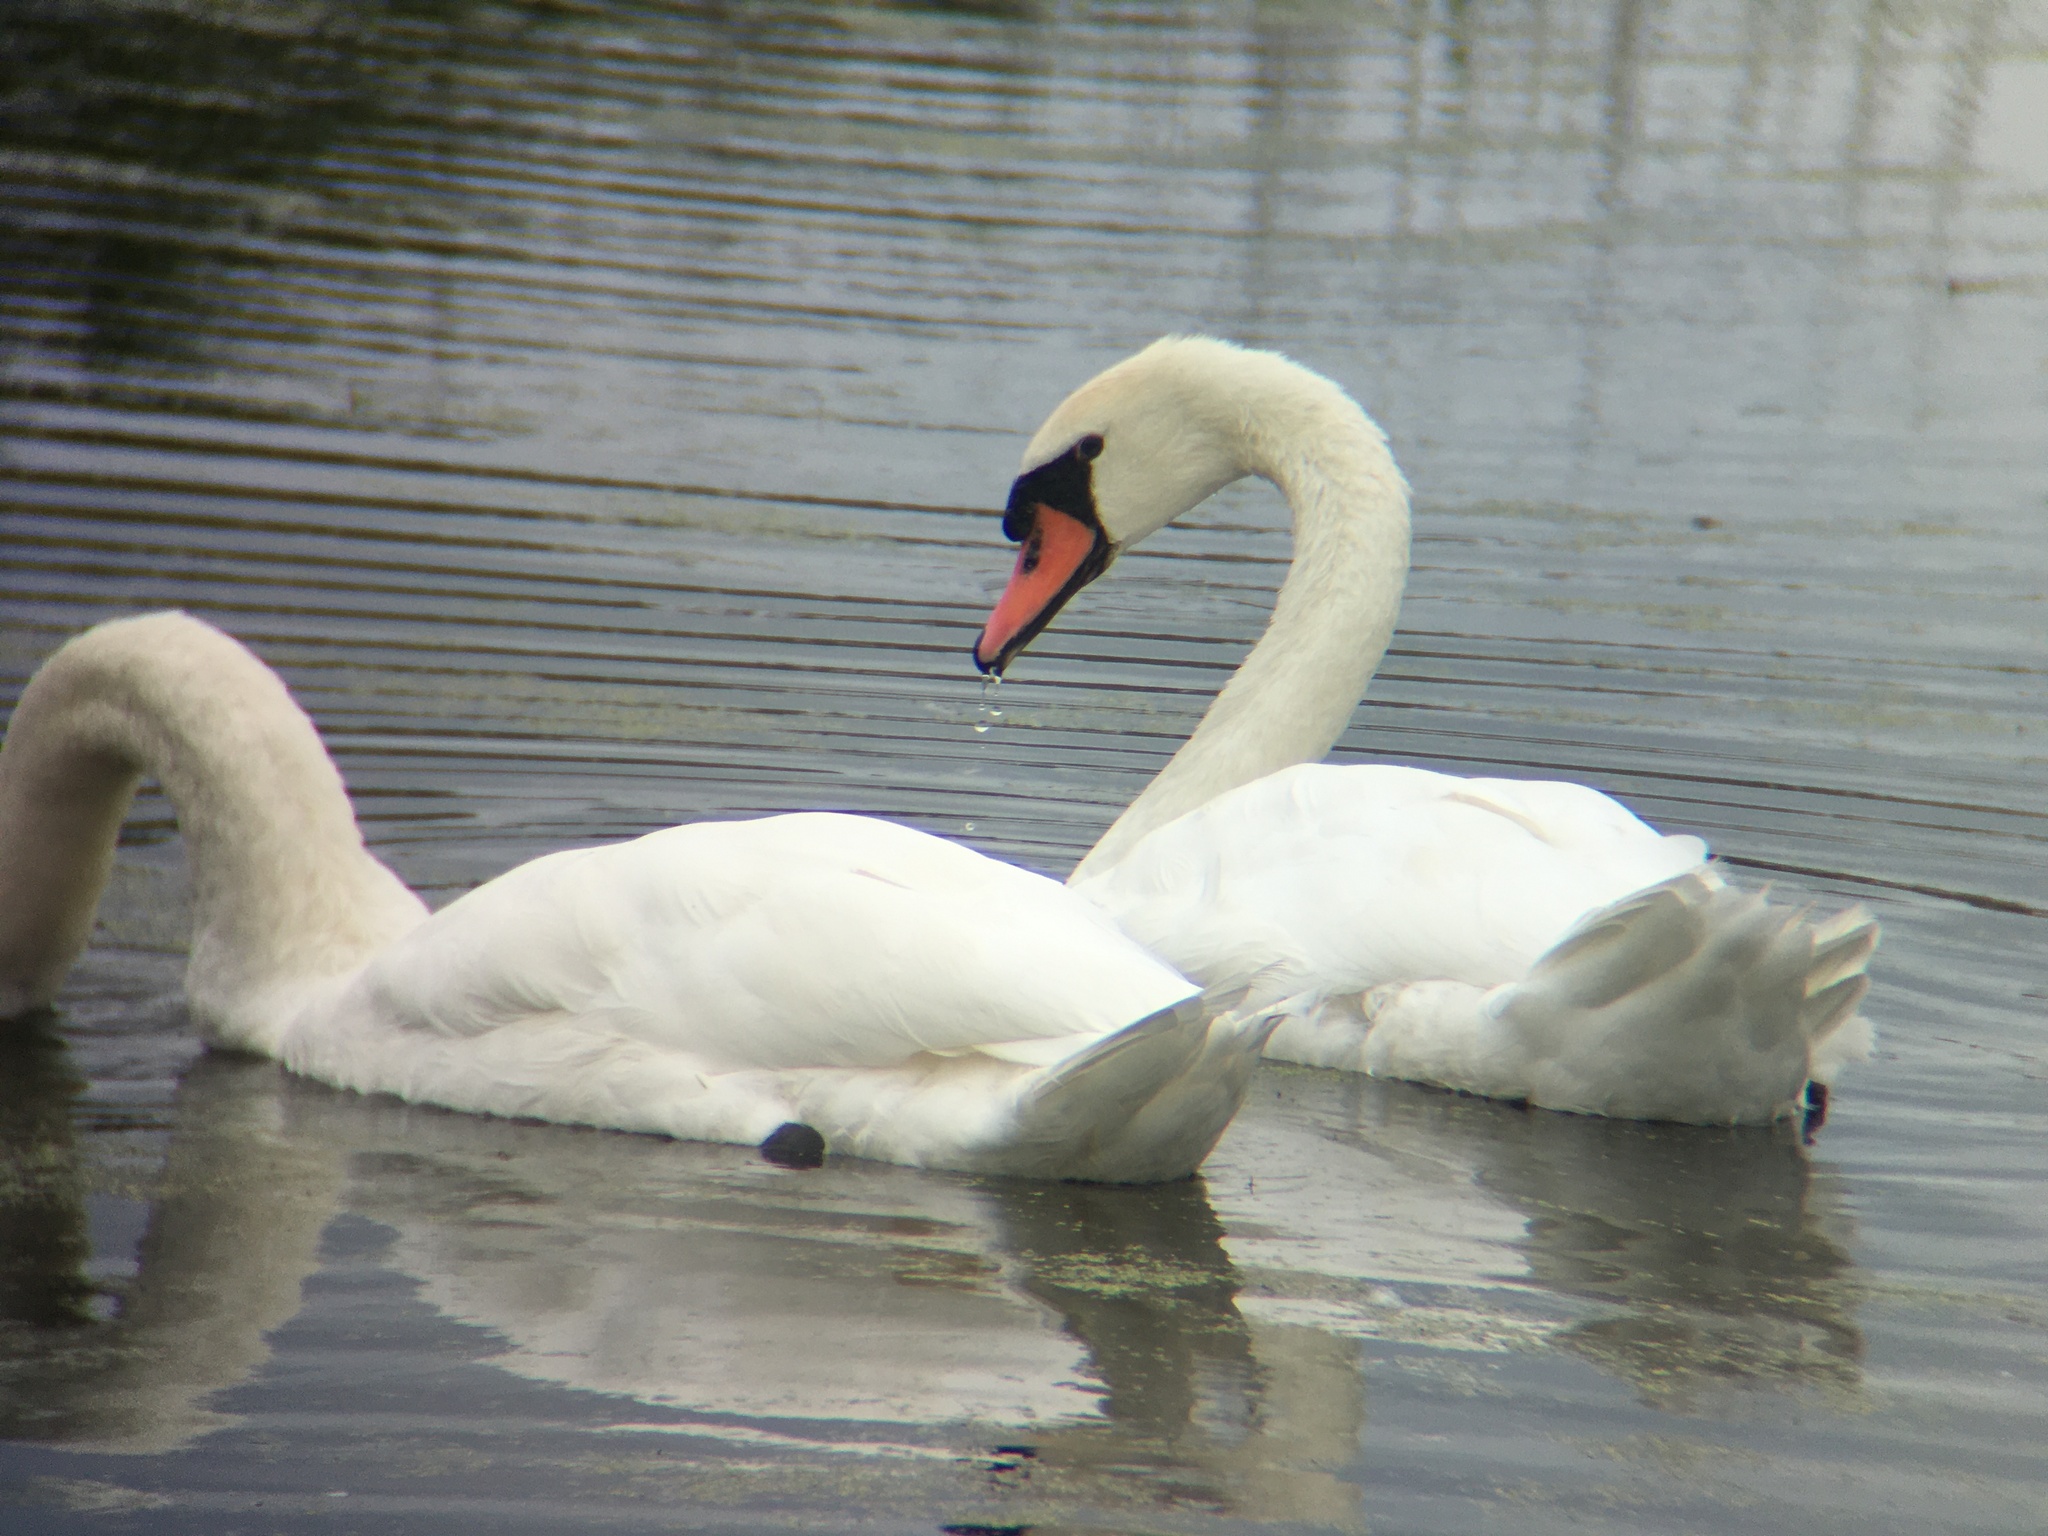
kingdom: Animalia
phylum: Chordata
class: Aves
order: Anseriformes
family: Anatidae
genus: Cygnus
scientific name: Cygnus olor
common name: Mute swan
